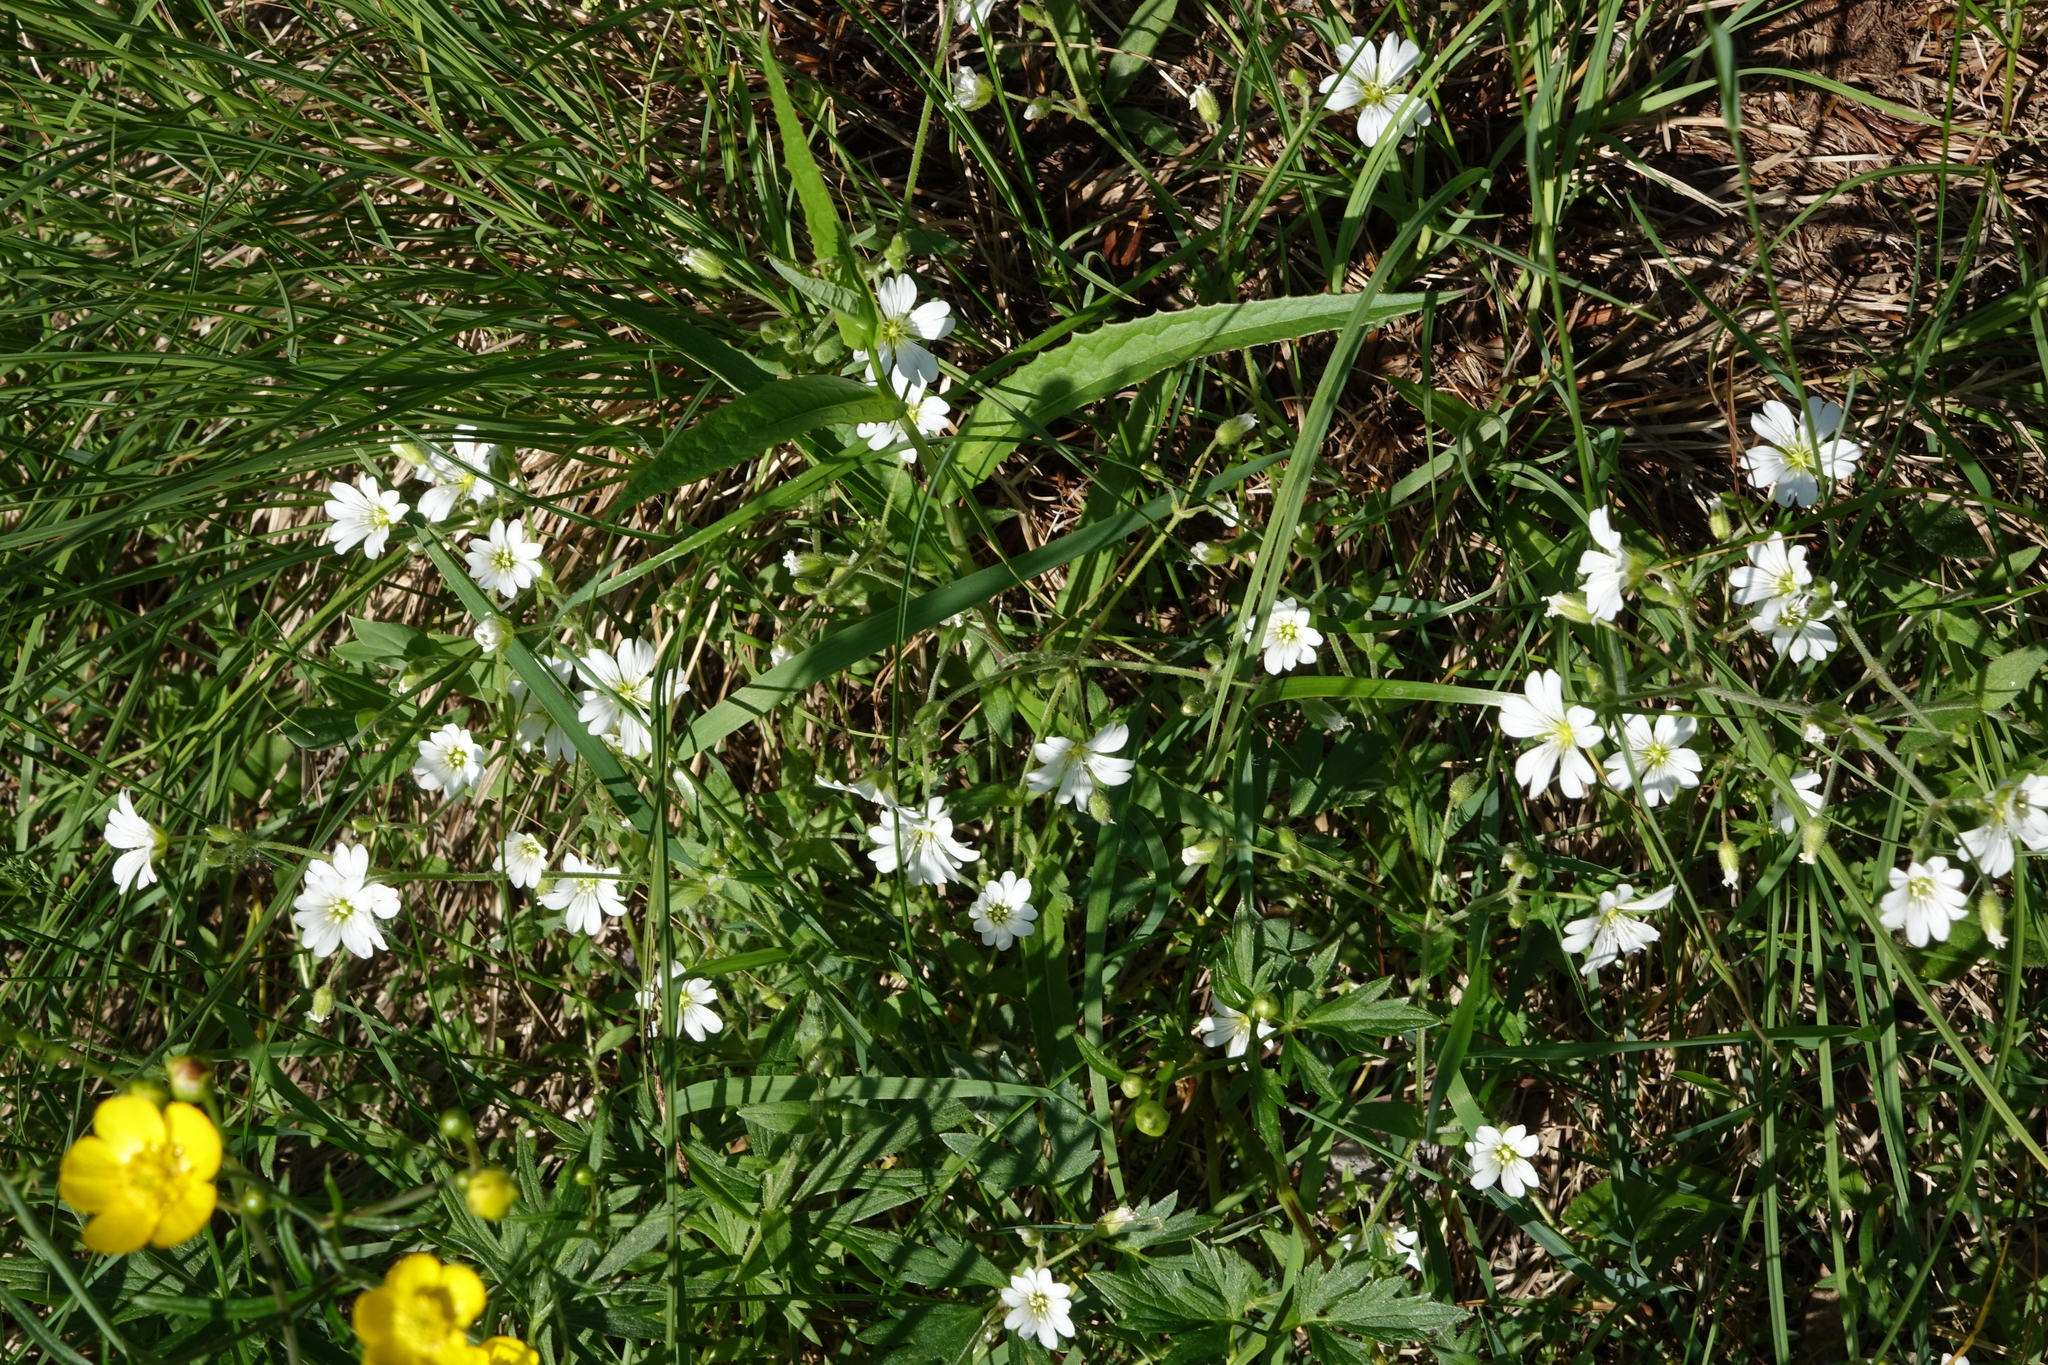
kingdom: Plantae
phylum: Tracheophyta
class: Magnoliopsida
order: Caryophyllales
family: Caryophyllaceae
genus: Cerastium
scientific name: Cerastium arvense
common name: Field mouse-ear
